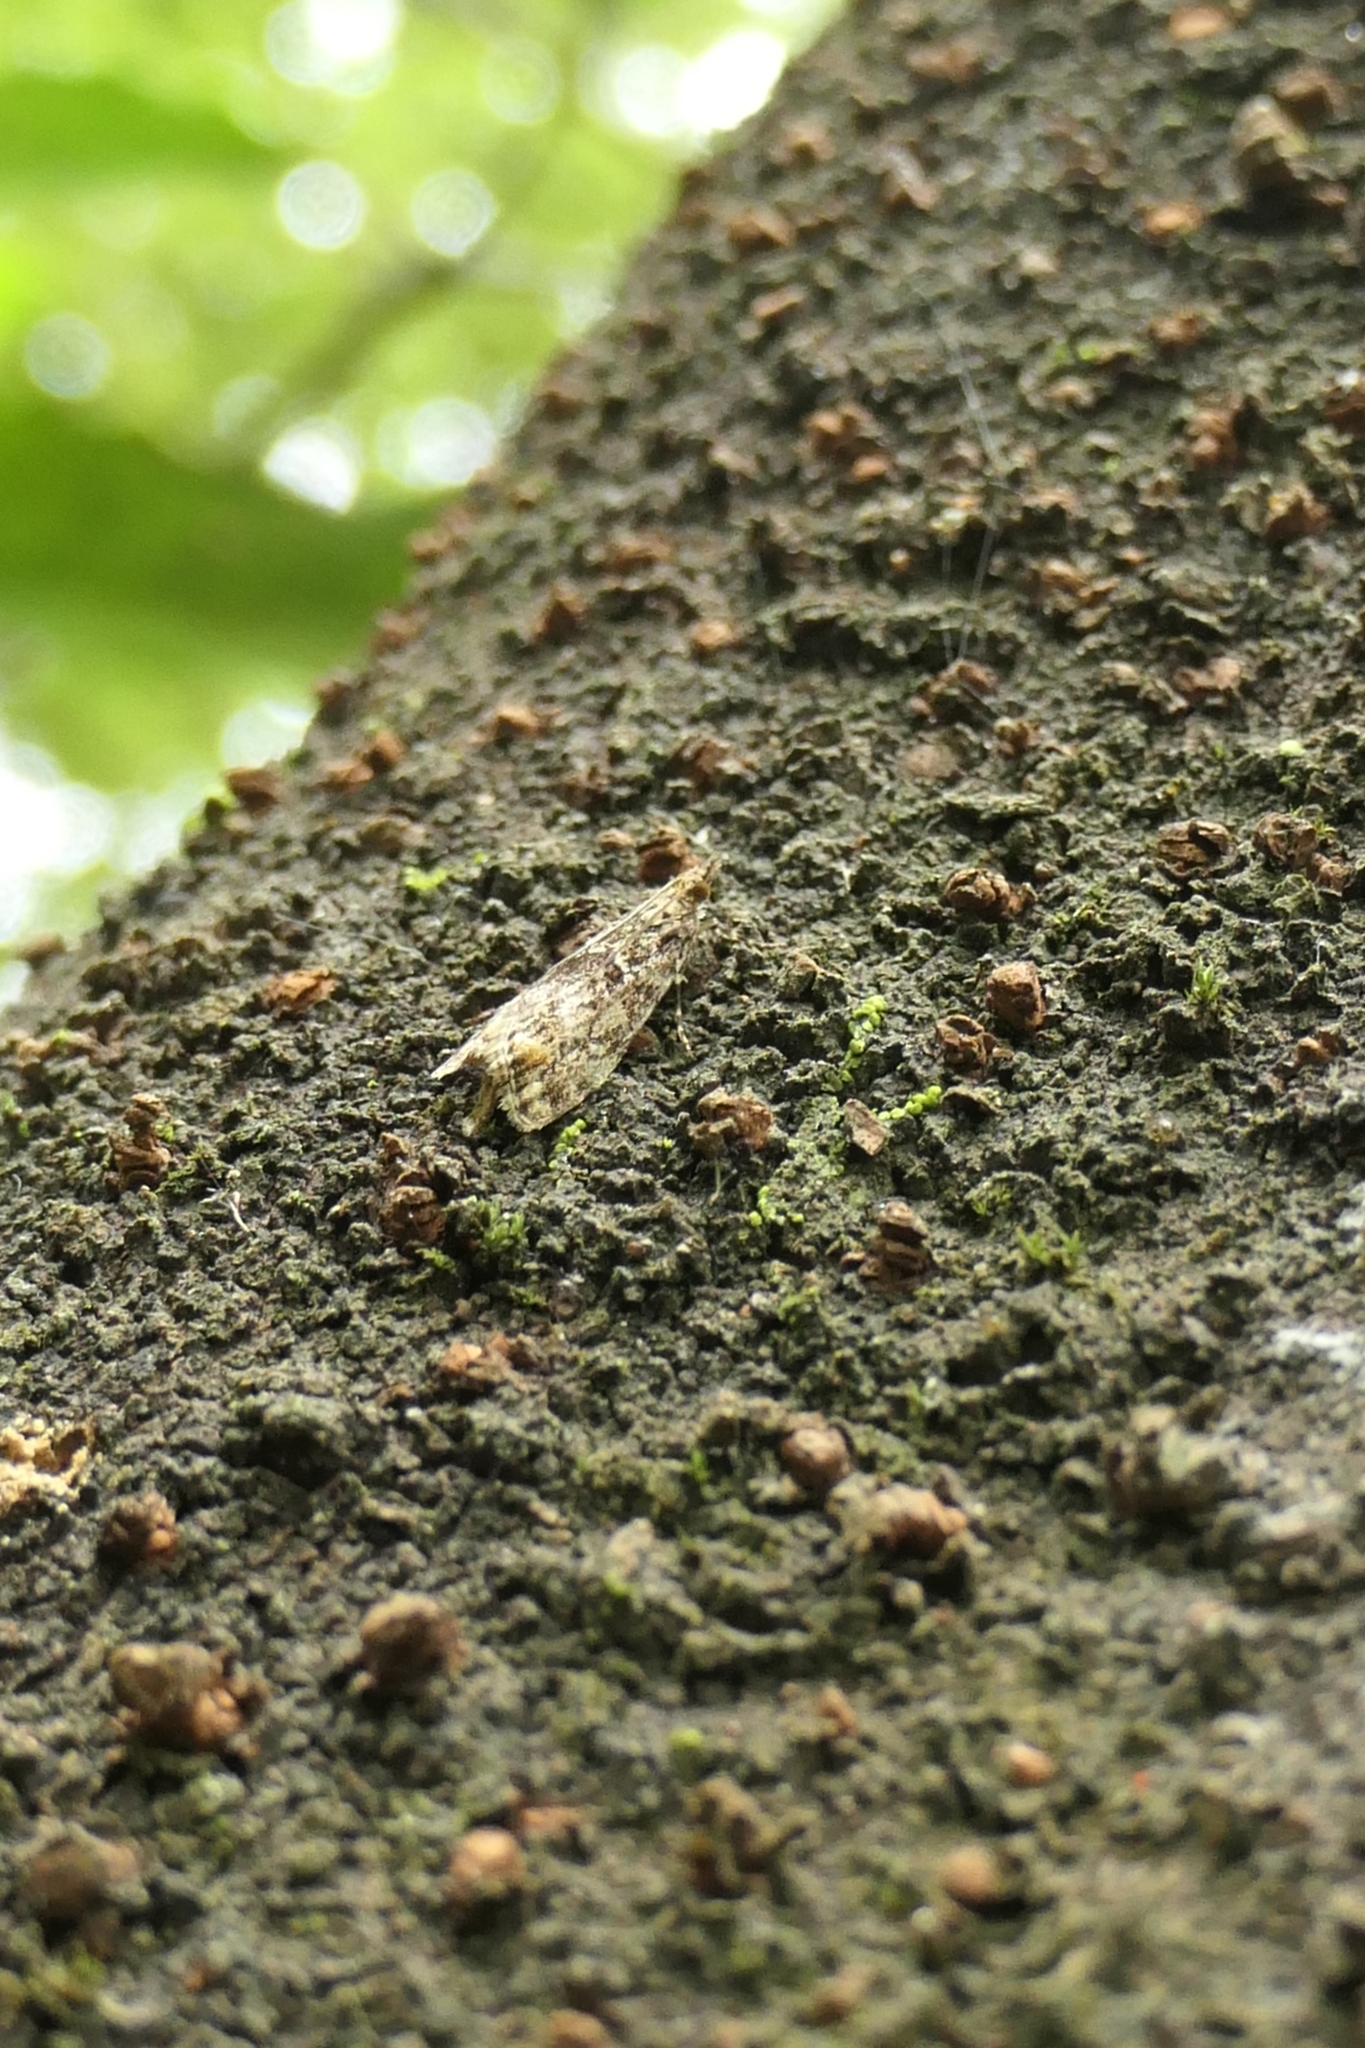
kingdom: Animalia
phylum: Arthropoda
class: Insecta
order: Lepidoptera
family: Crambidae
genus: Eudonia
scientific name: Eudonia minualis
